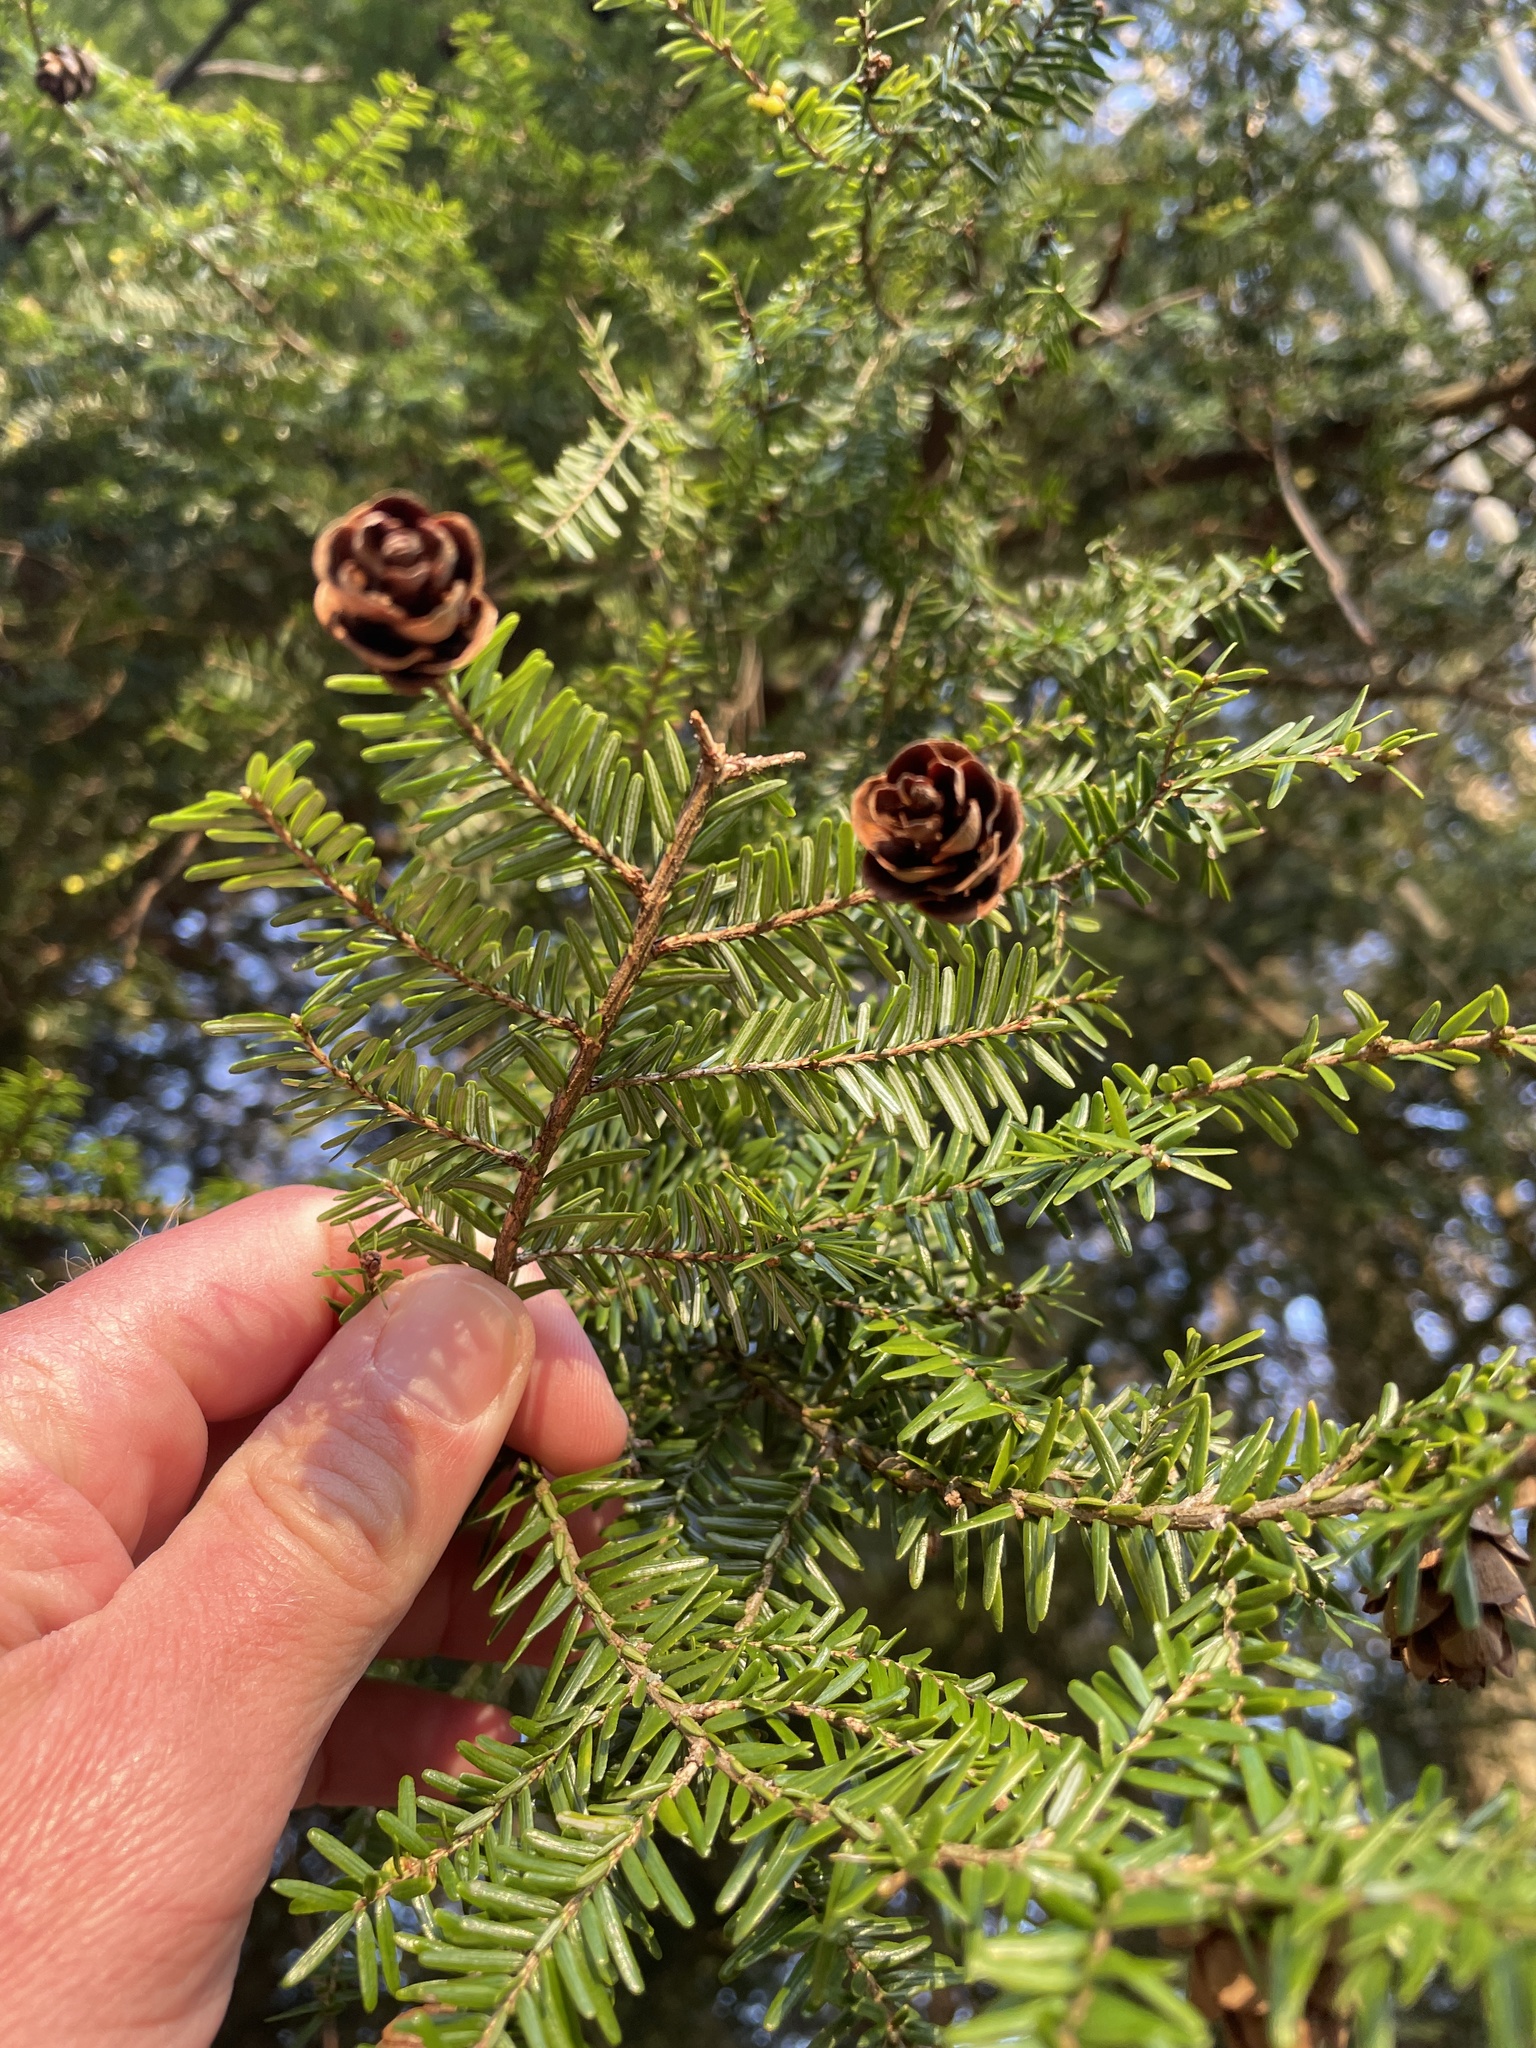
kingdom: Plantae
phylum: Tracheophyta
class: Pinopsida
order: Pinales
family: Pinaceae
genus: Tsuga
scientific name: Tsuga canadensis
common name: Eastern hemlock
